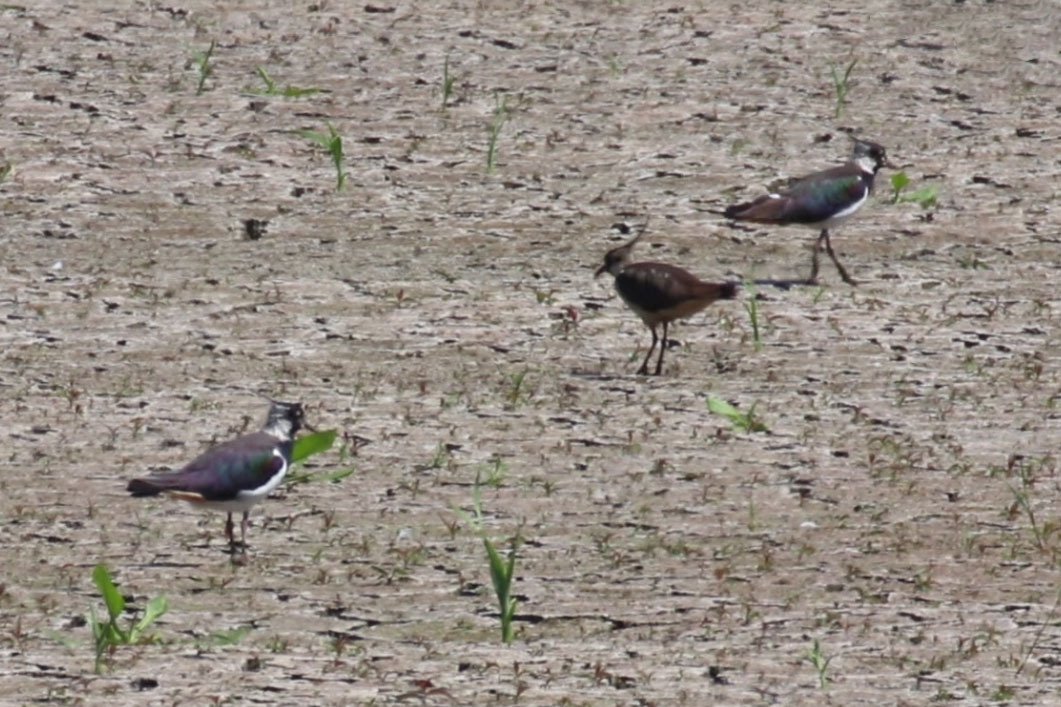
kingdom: Animalia
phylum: Chordata
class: Aves
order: Charadriiformes
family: Charadriidae
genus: Vanellus
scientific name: Vanellus vanellus
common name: Northern lapwing
